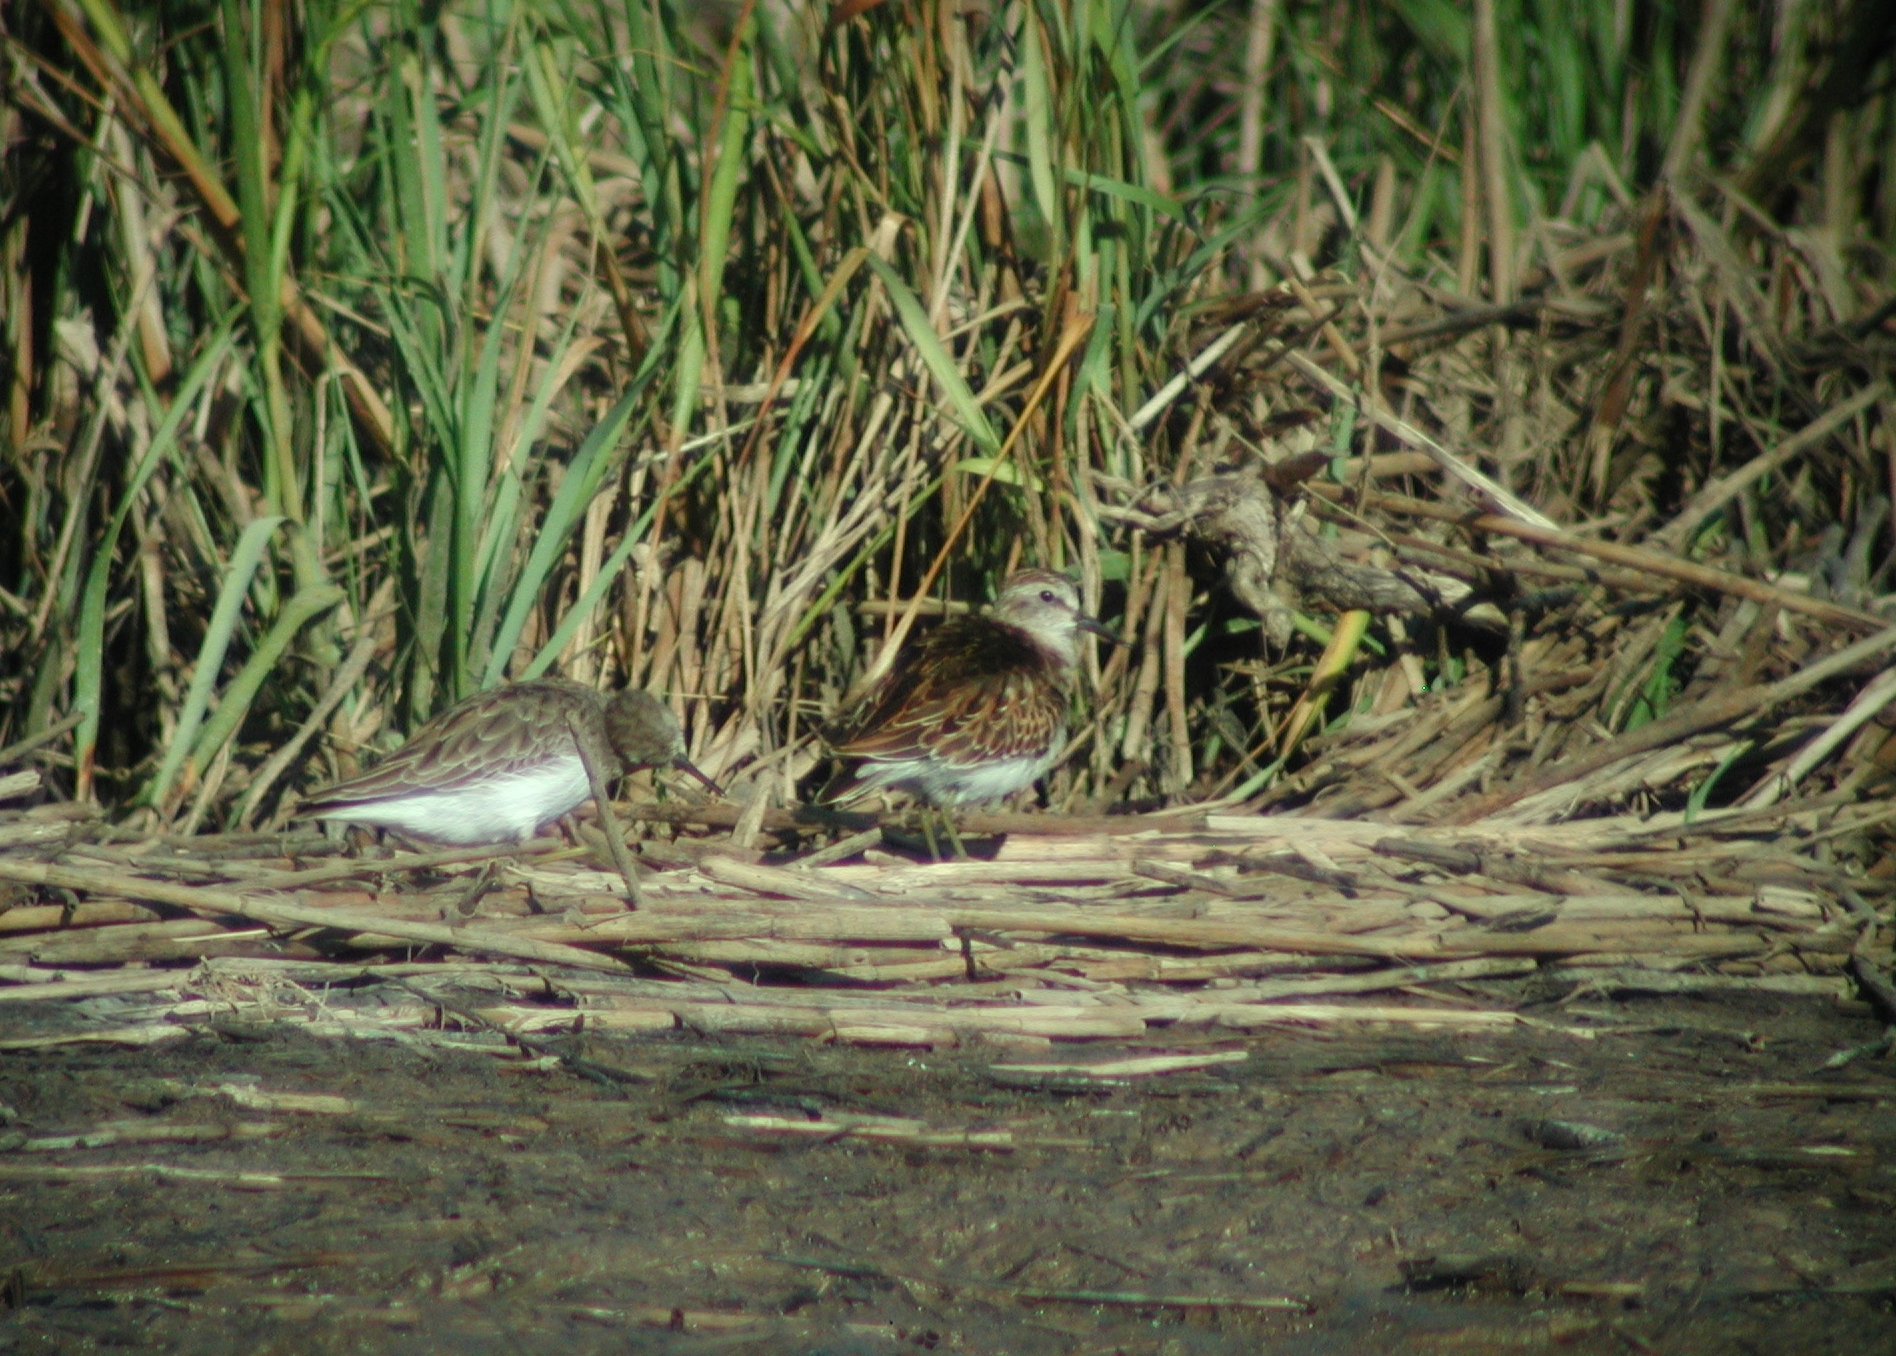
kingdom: Animalia
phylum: Chordata
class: Aves
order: Charadriiformes
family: Scolopacidae
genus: Calidris
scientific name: Calidris minutilla
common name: Least sandpiper
